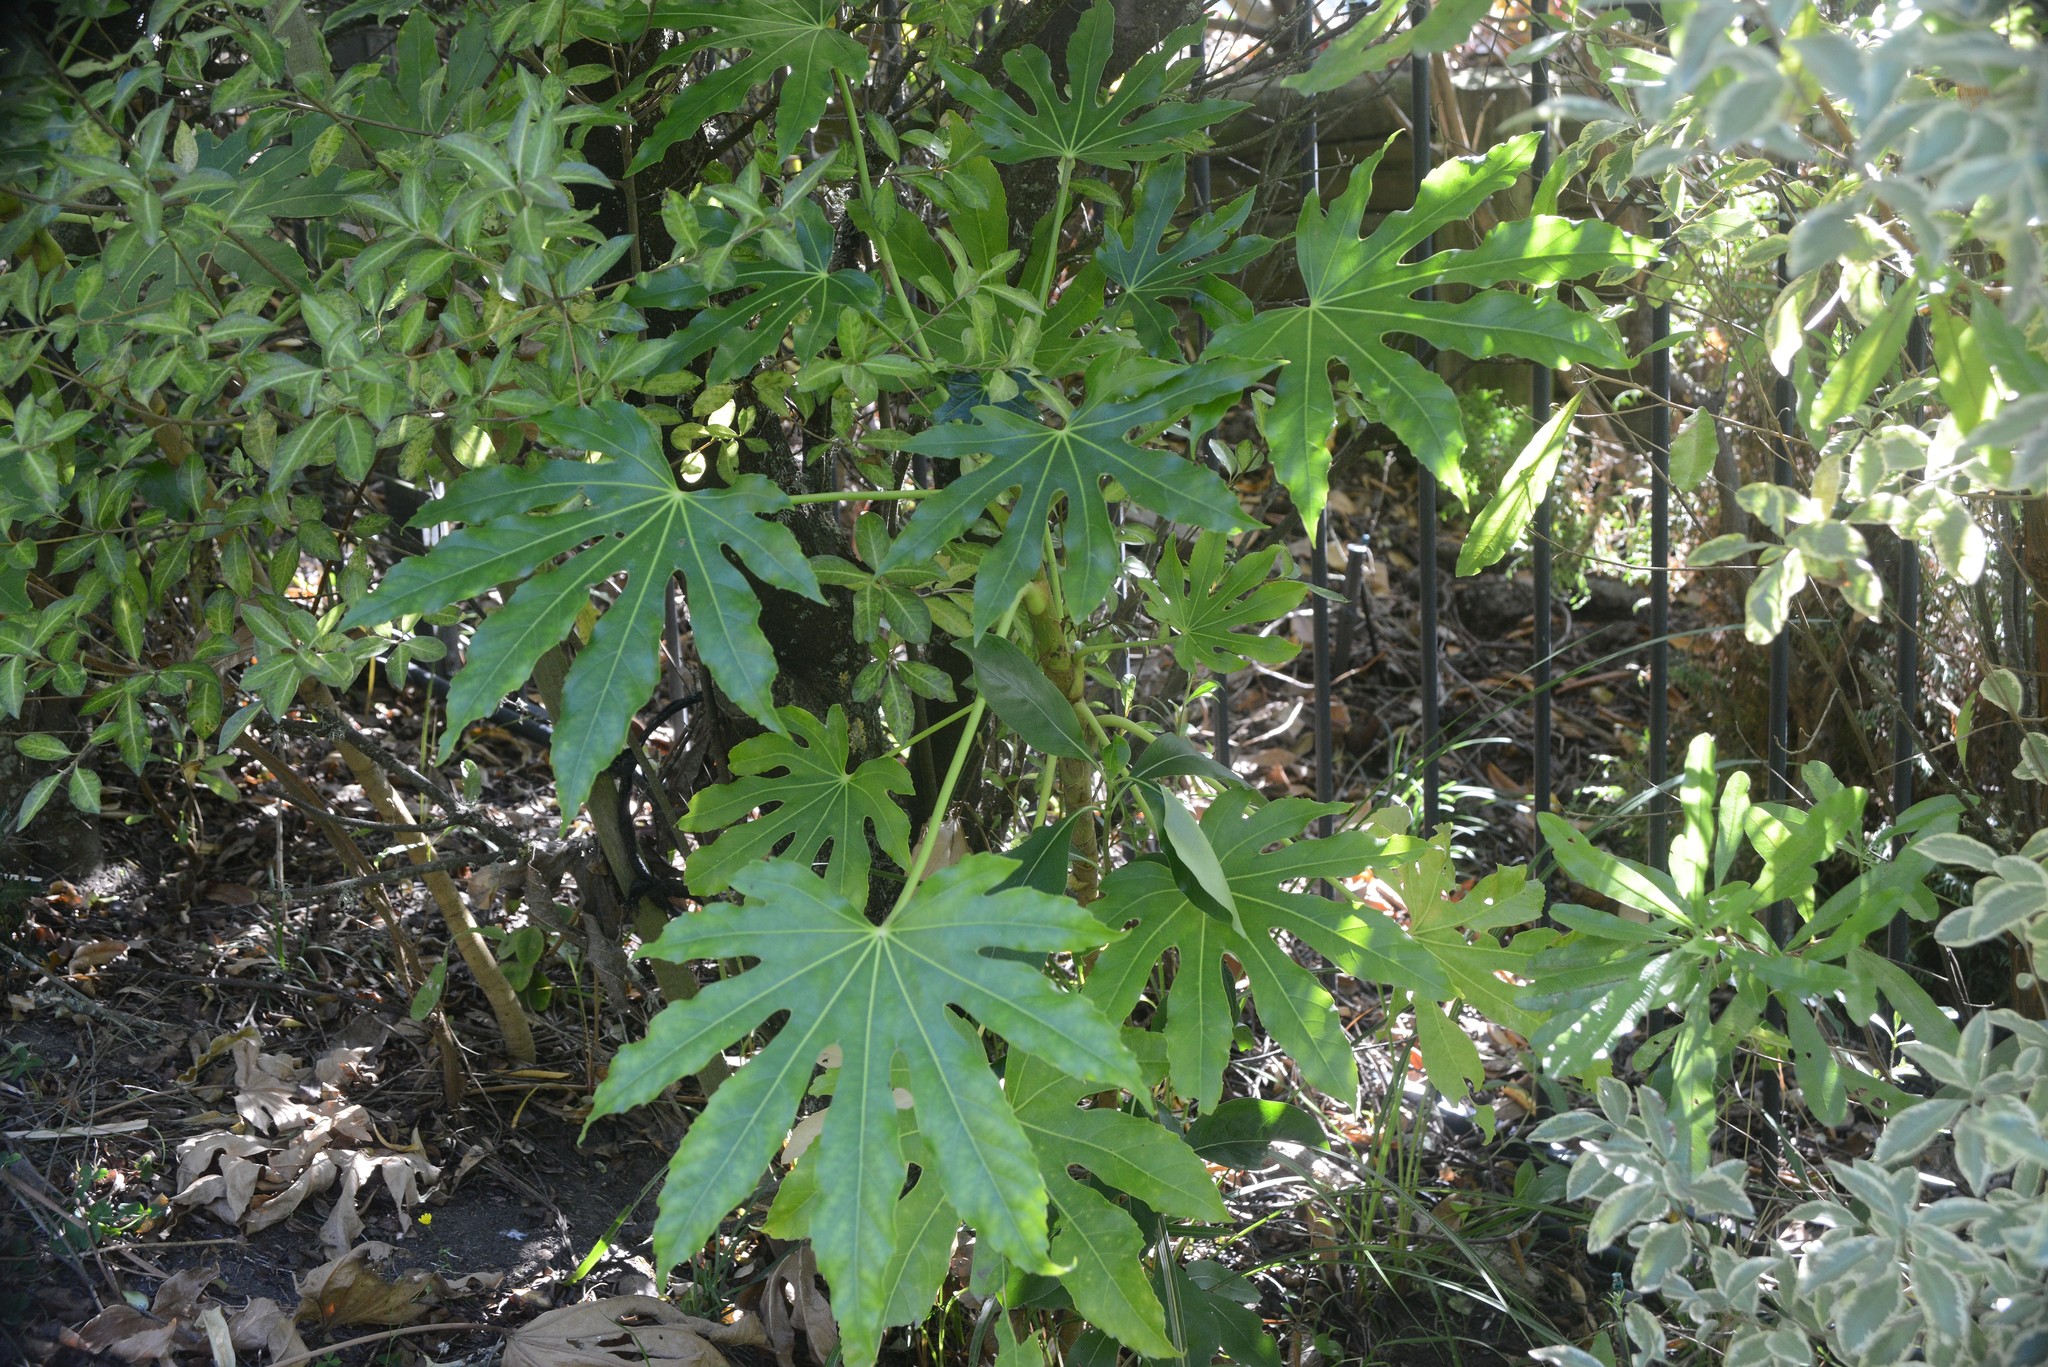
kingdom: Plantae
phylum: Tracheophyta
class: Magnoliopsida
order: Apiales
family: Araliaceae
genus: Fatsia
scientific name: Fatsia japonica
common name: Fatsia
